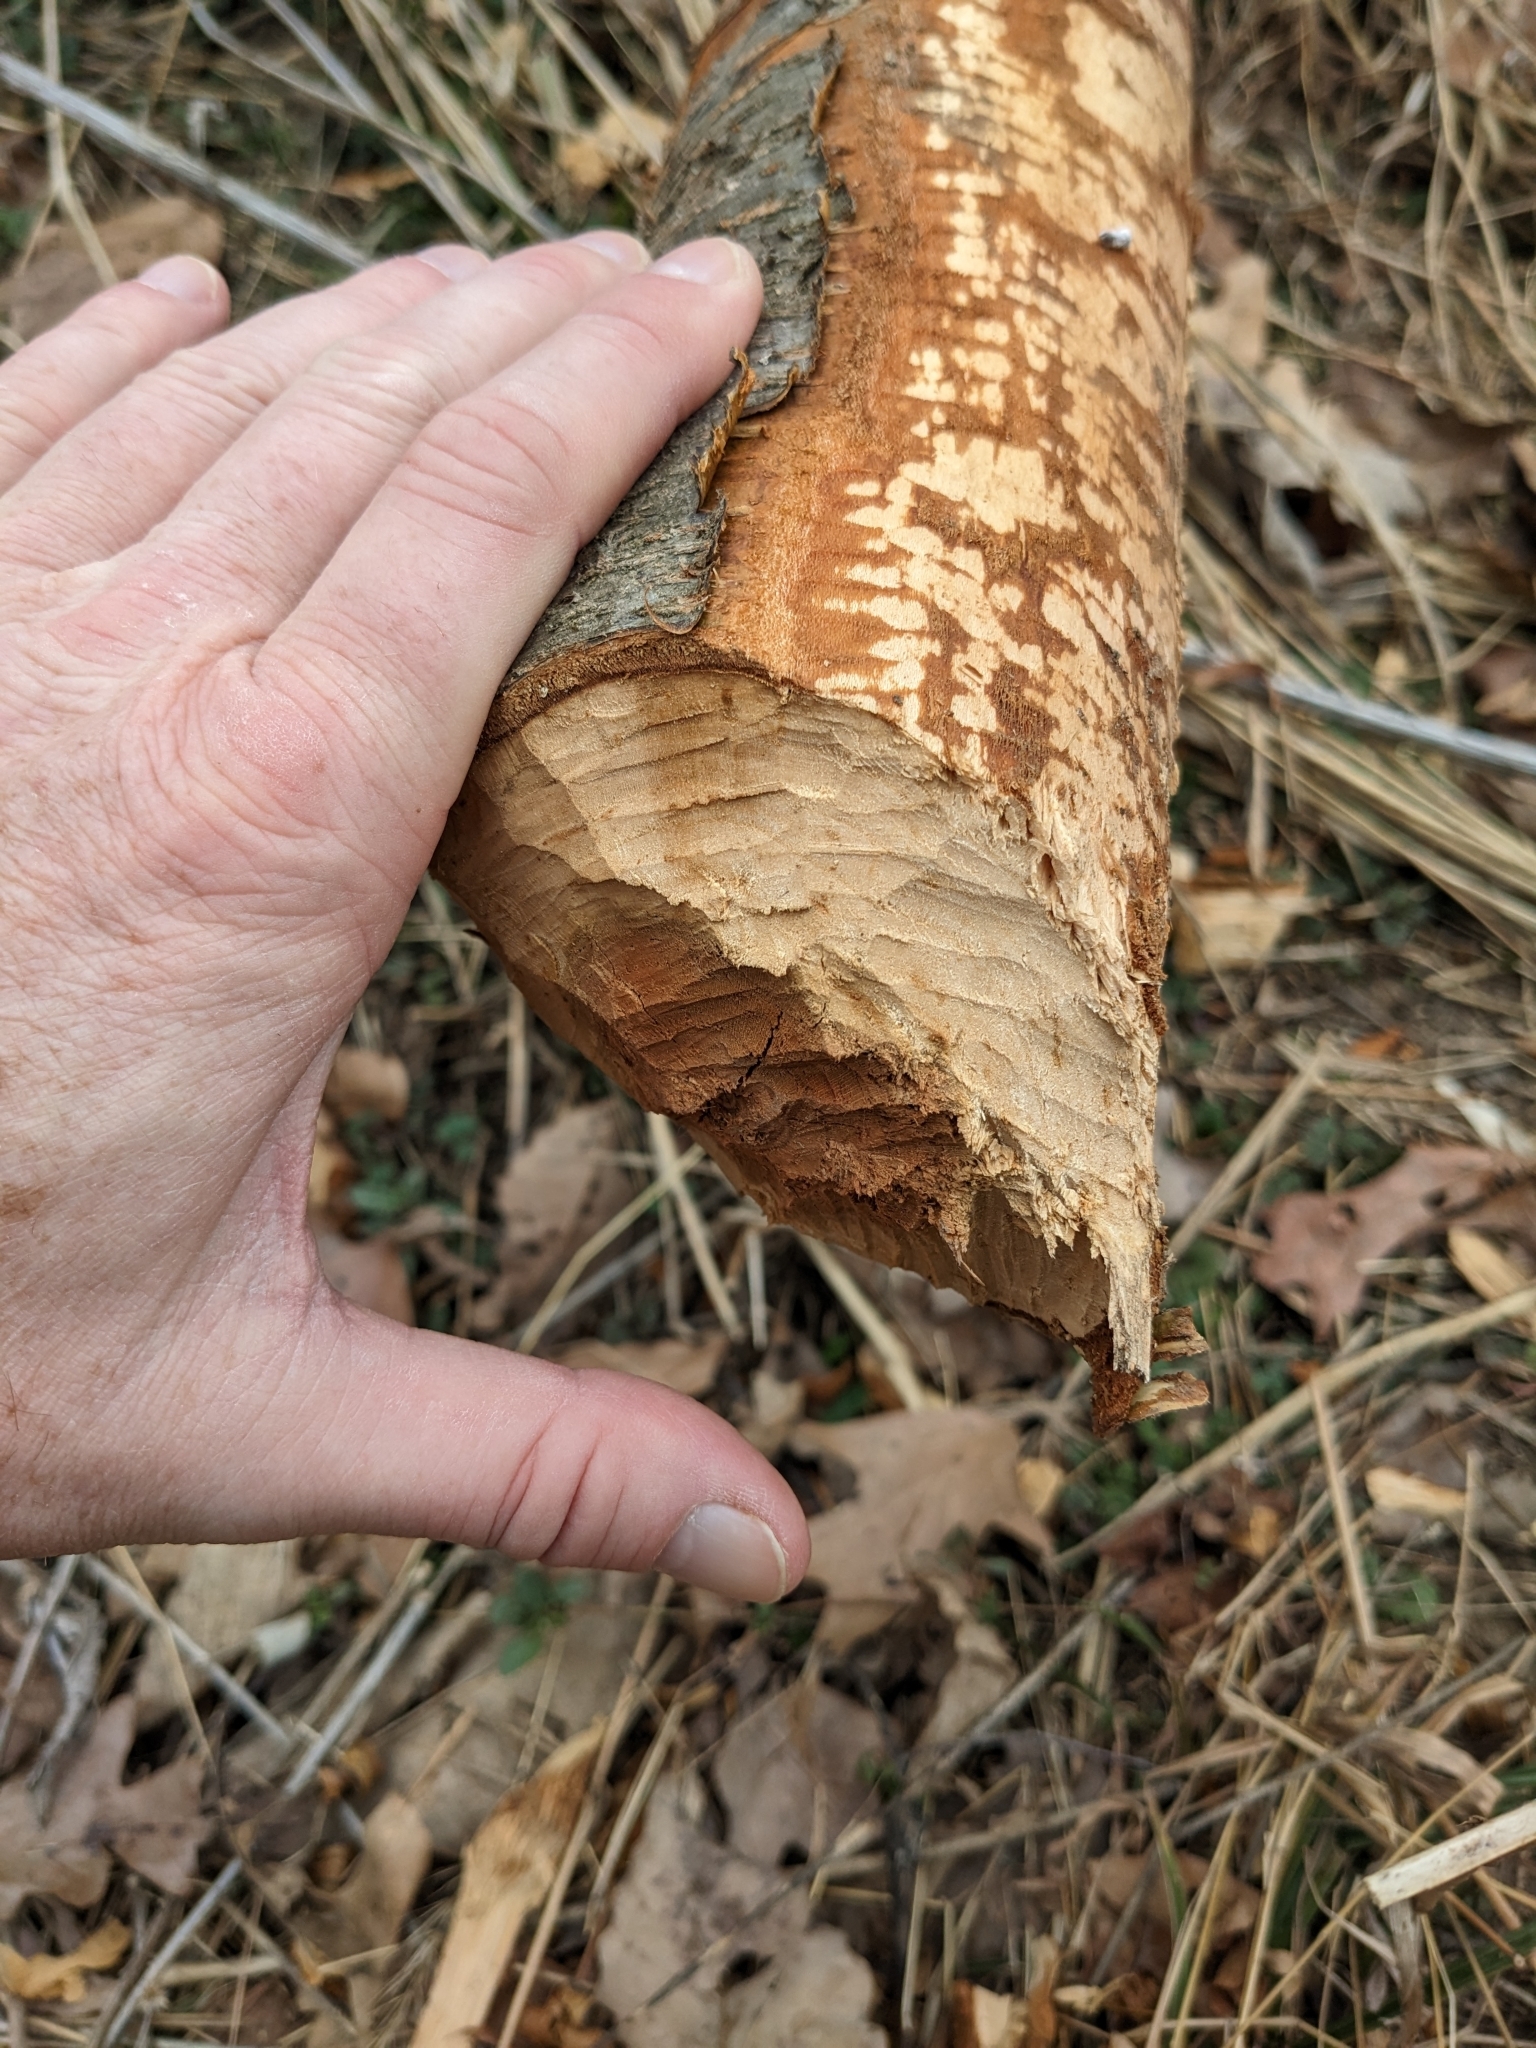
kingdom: Animalia
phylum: Chordata
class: Mammalia
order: Rodentia
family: Castoridae
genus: Castor
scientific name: Castor canadensis
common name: American beaver
